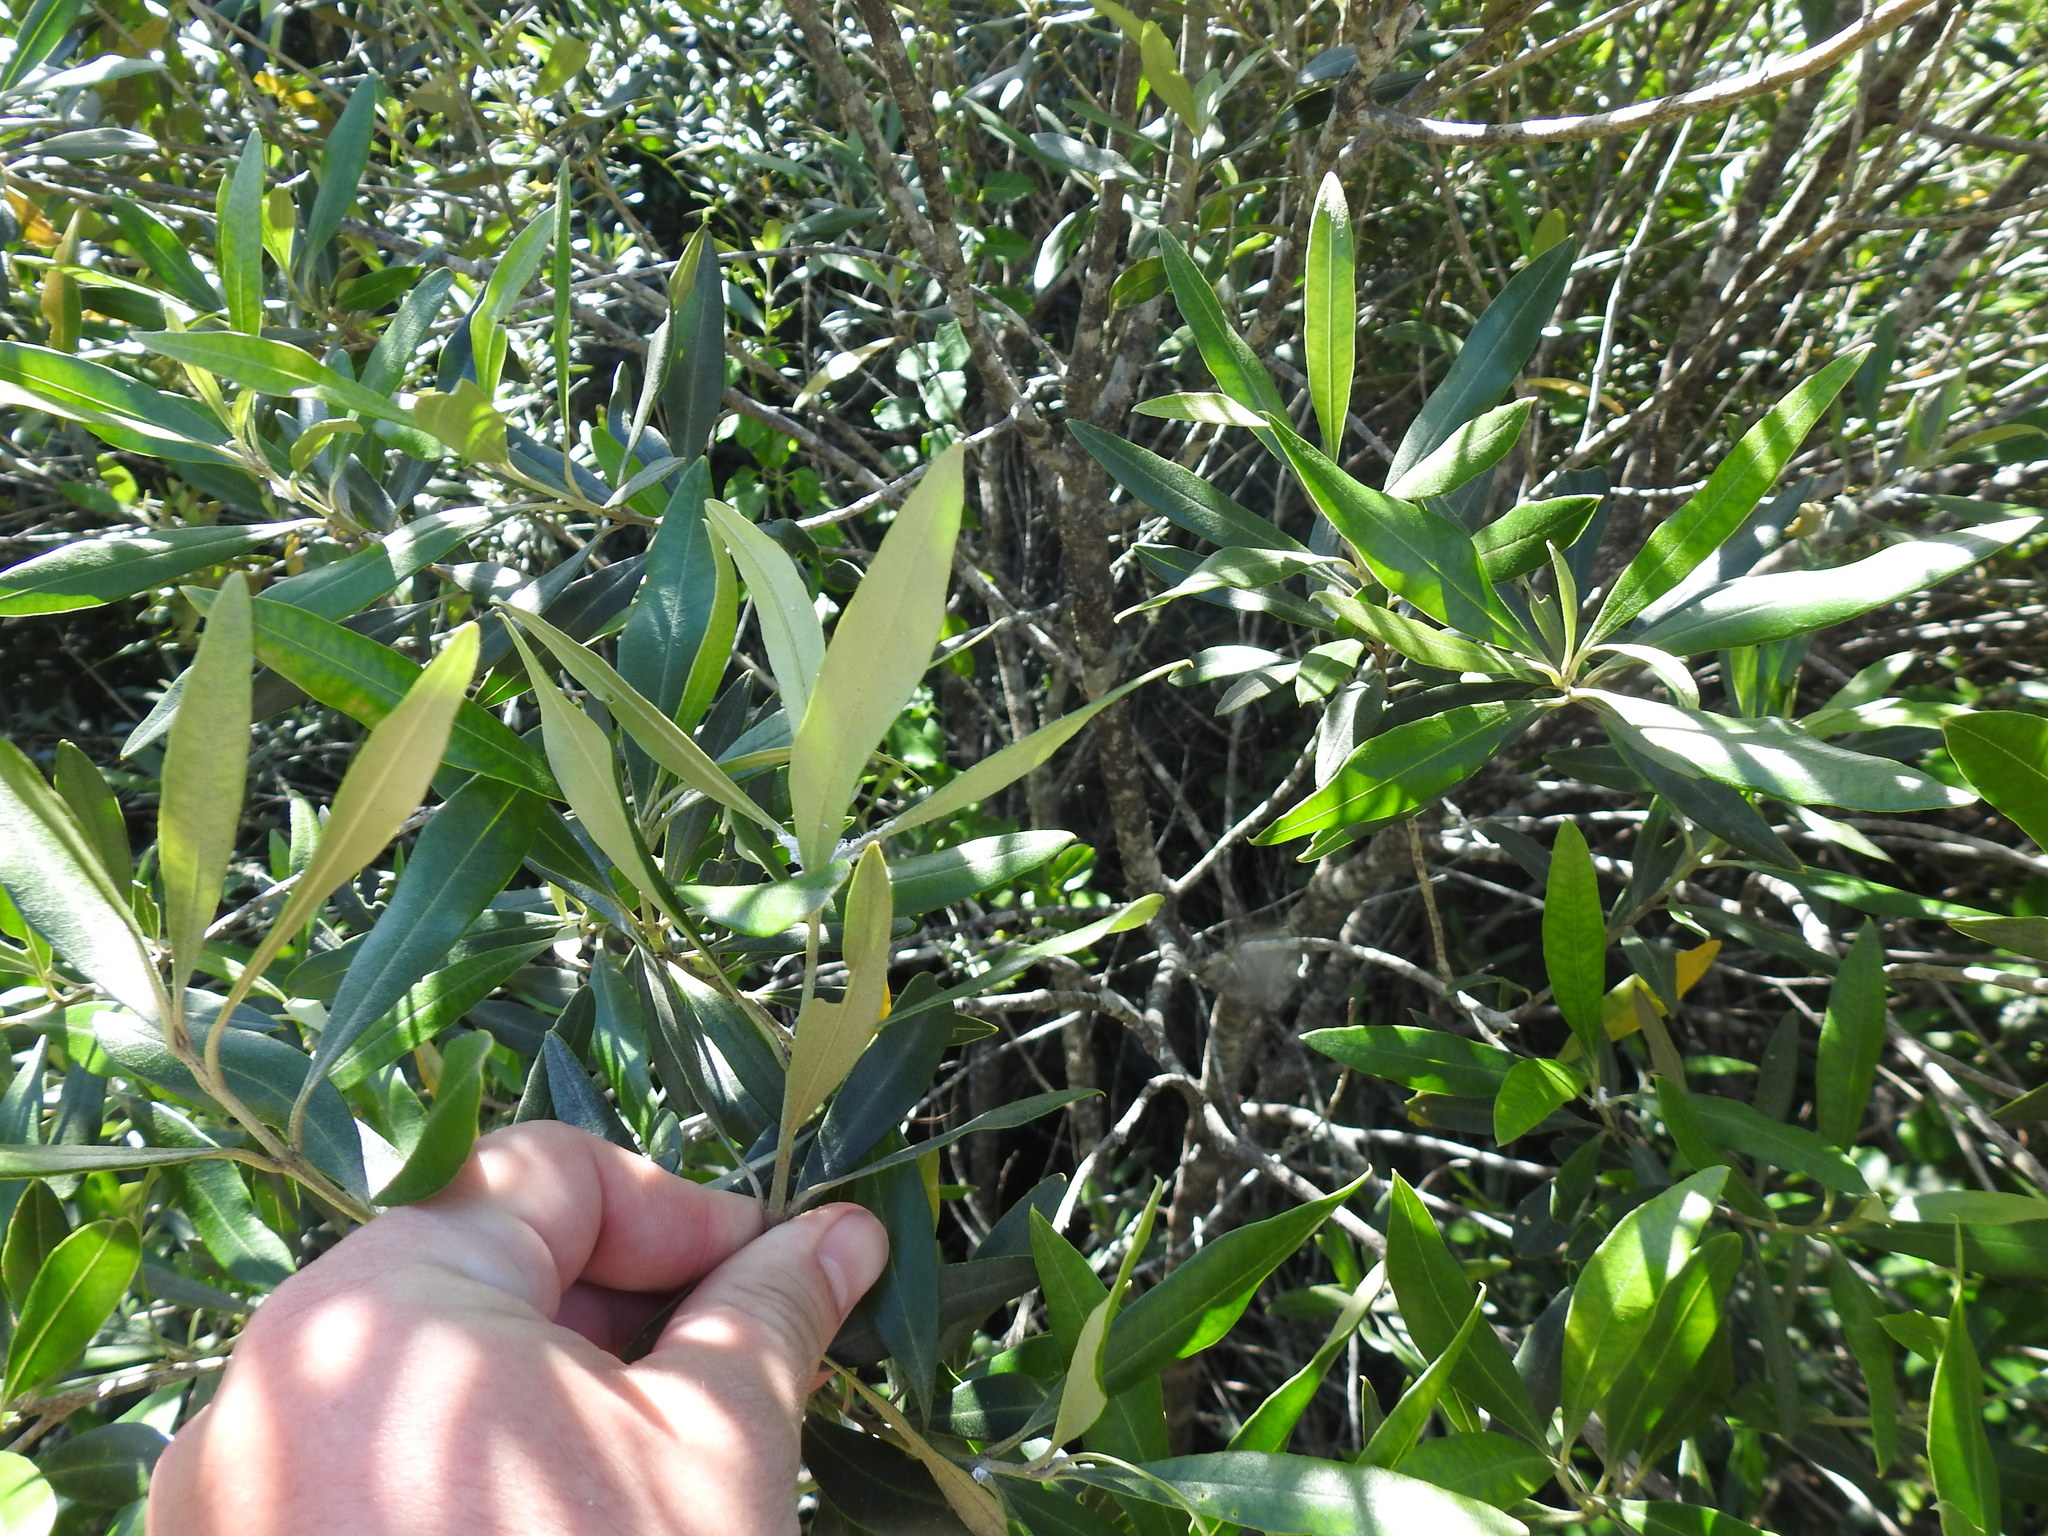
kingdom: Plantae
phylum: Tracheophyta
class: Magnoliopsida
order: Lamiales
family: Oleaceae
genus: Olea
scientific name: Olea europaea
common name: Olive
